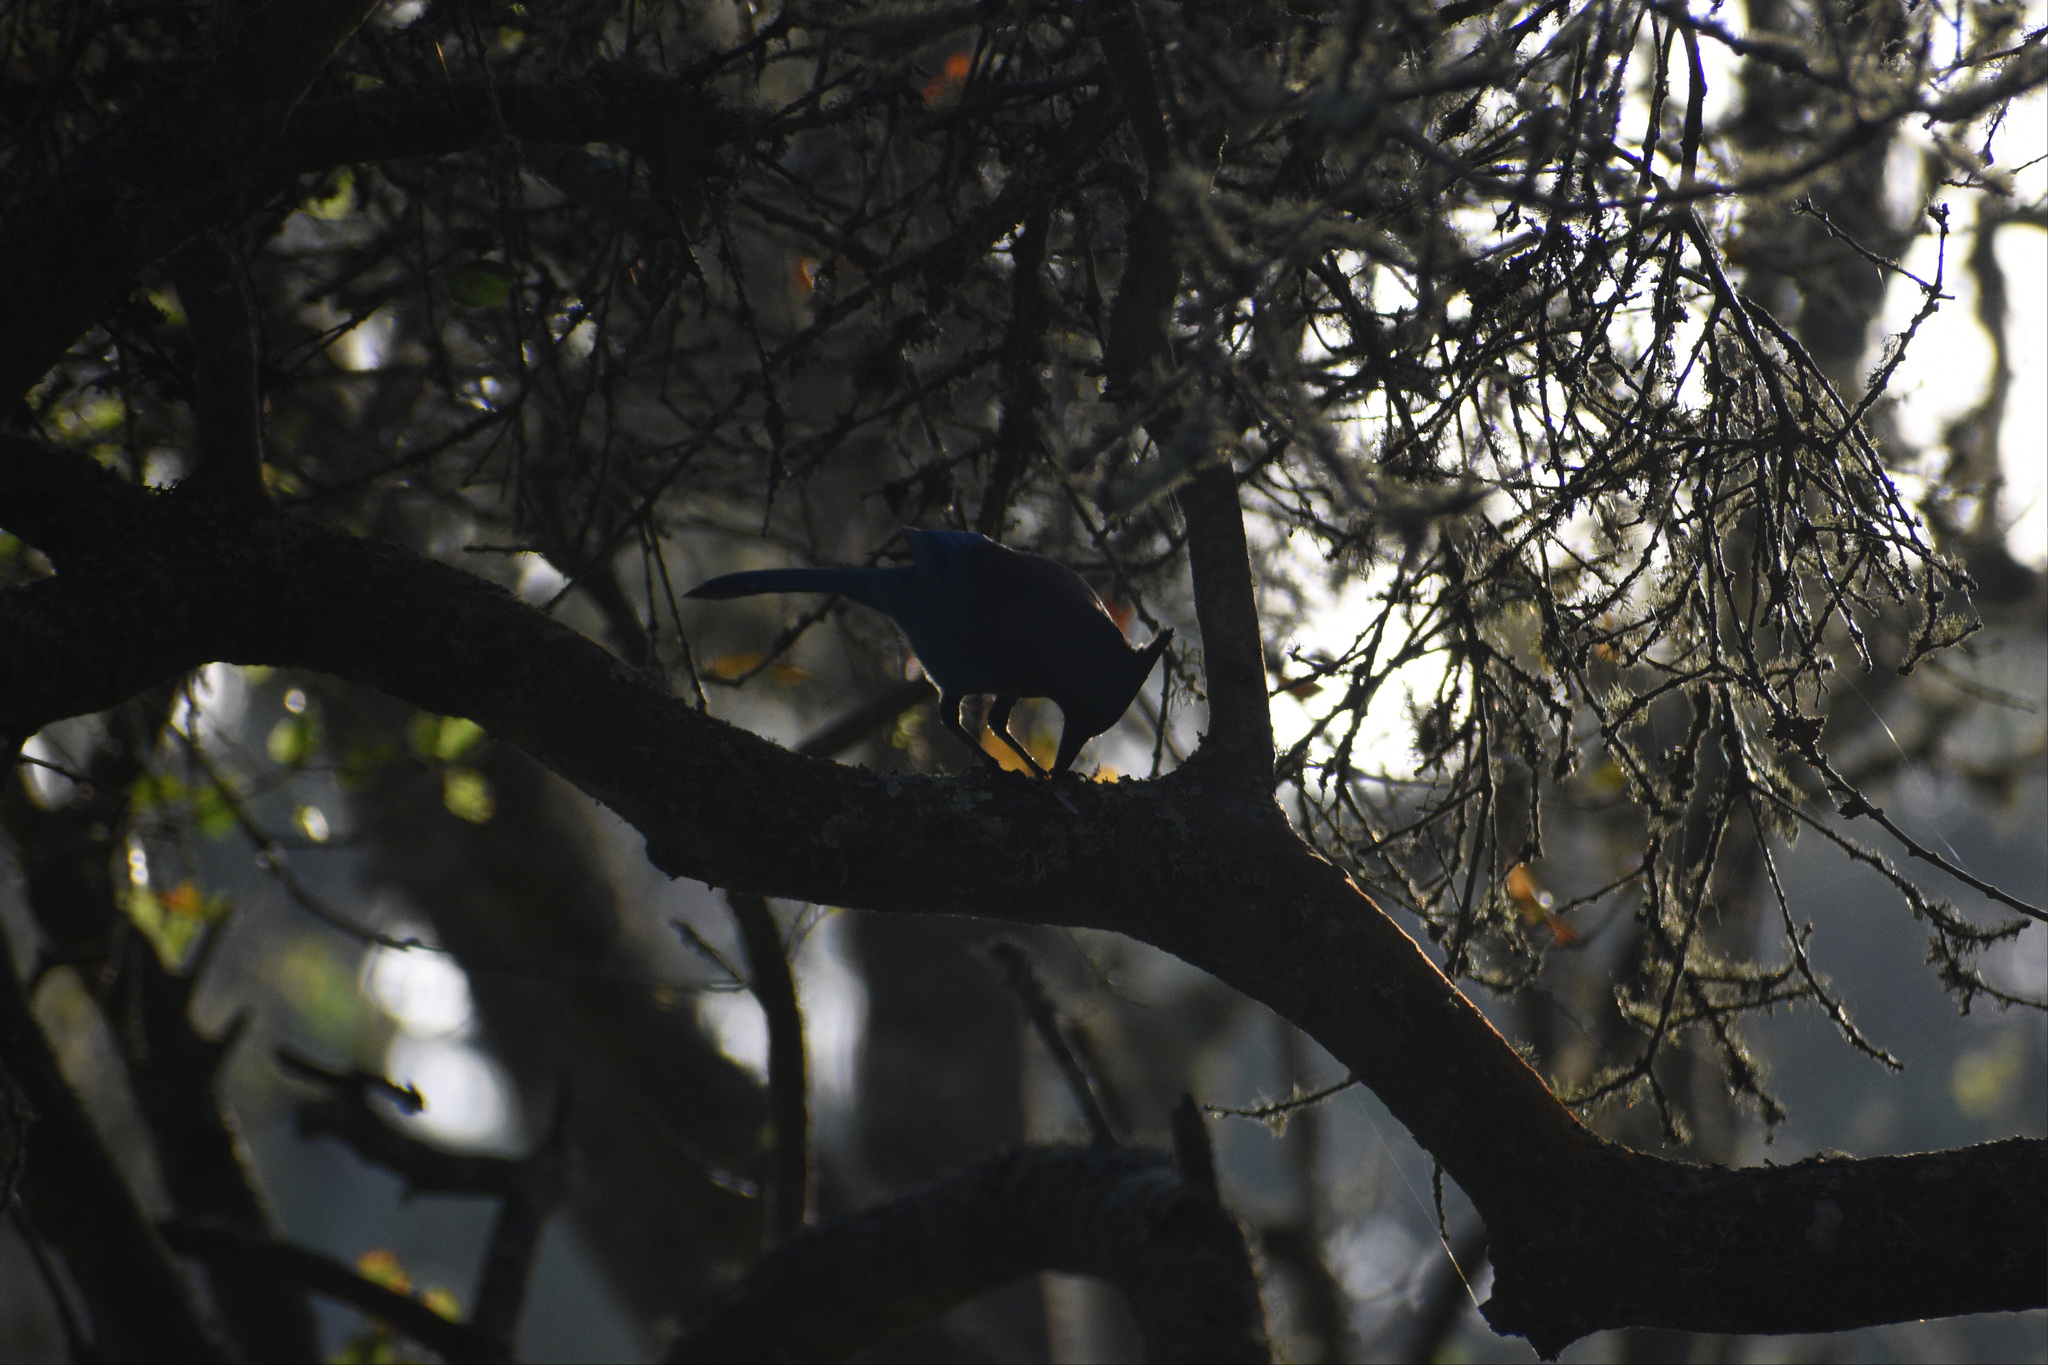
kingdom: Animalia
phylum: Chordata
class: Aves
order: Passeriformes
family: Corvidae
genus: Cyanocitta
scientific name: Cyanocitta stelleri
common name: Steller's jay
